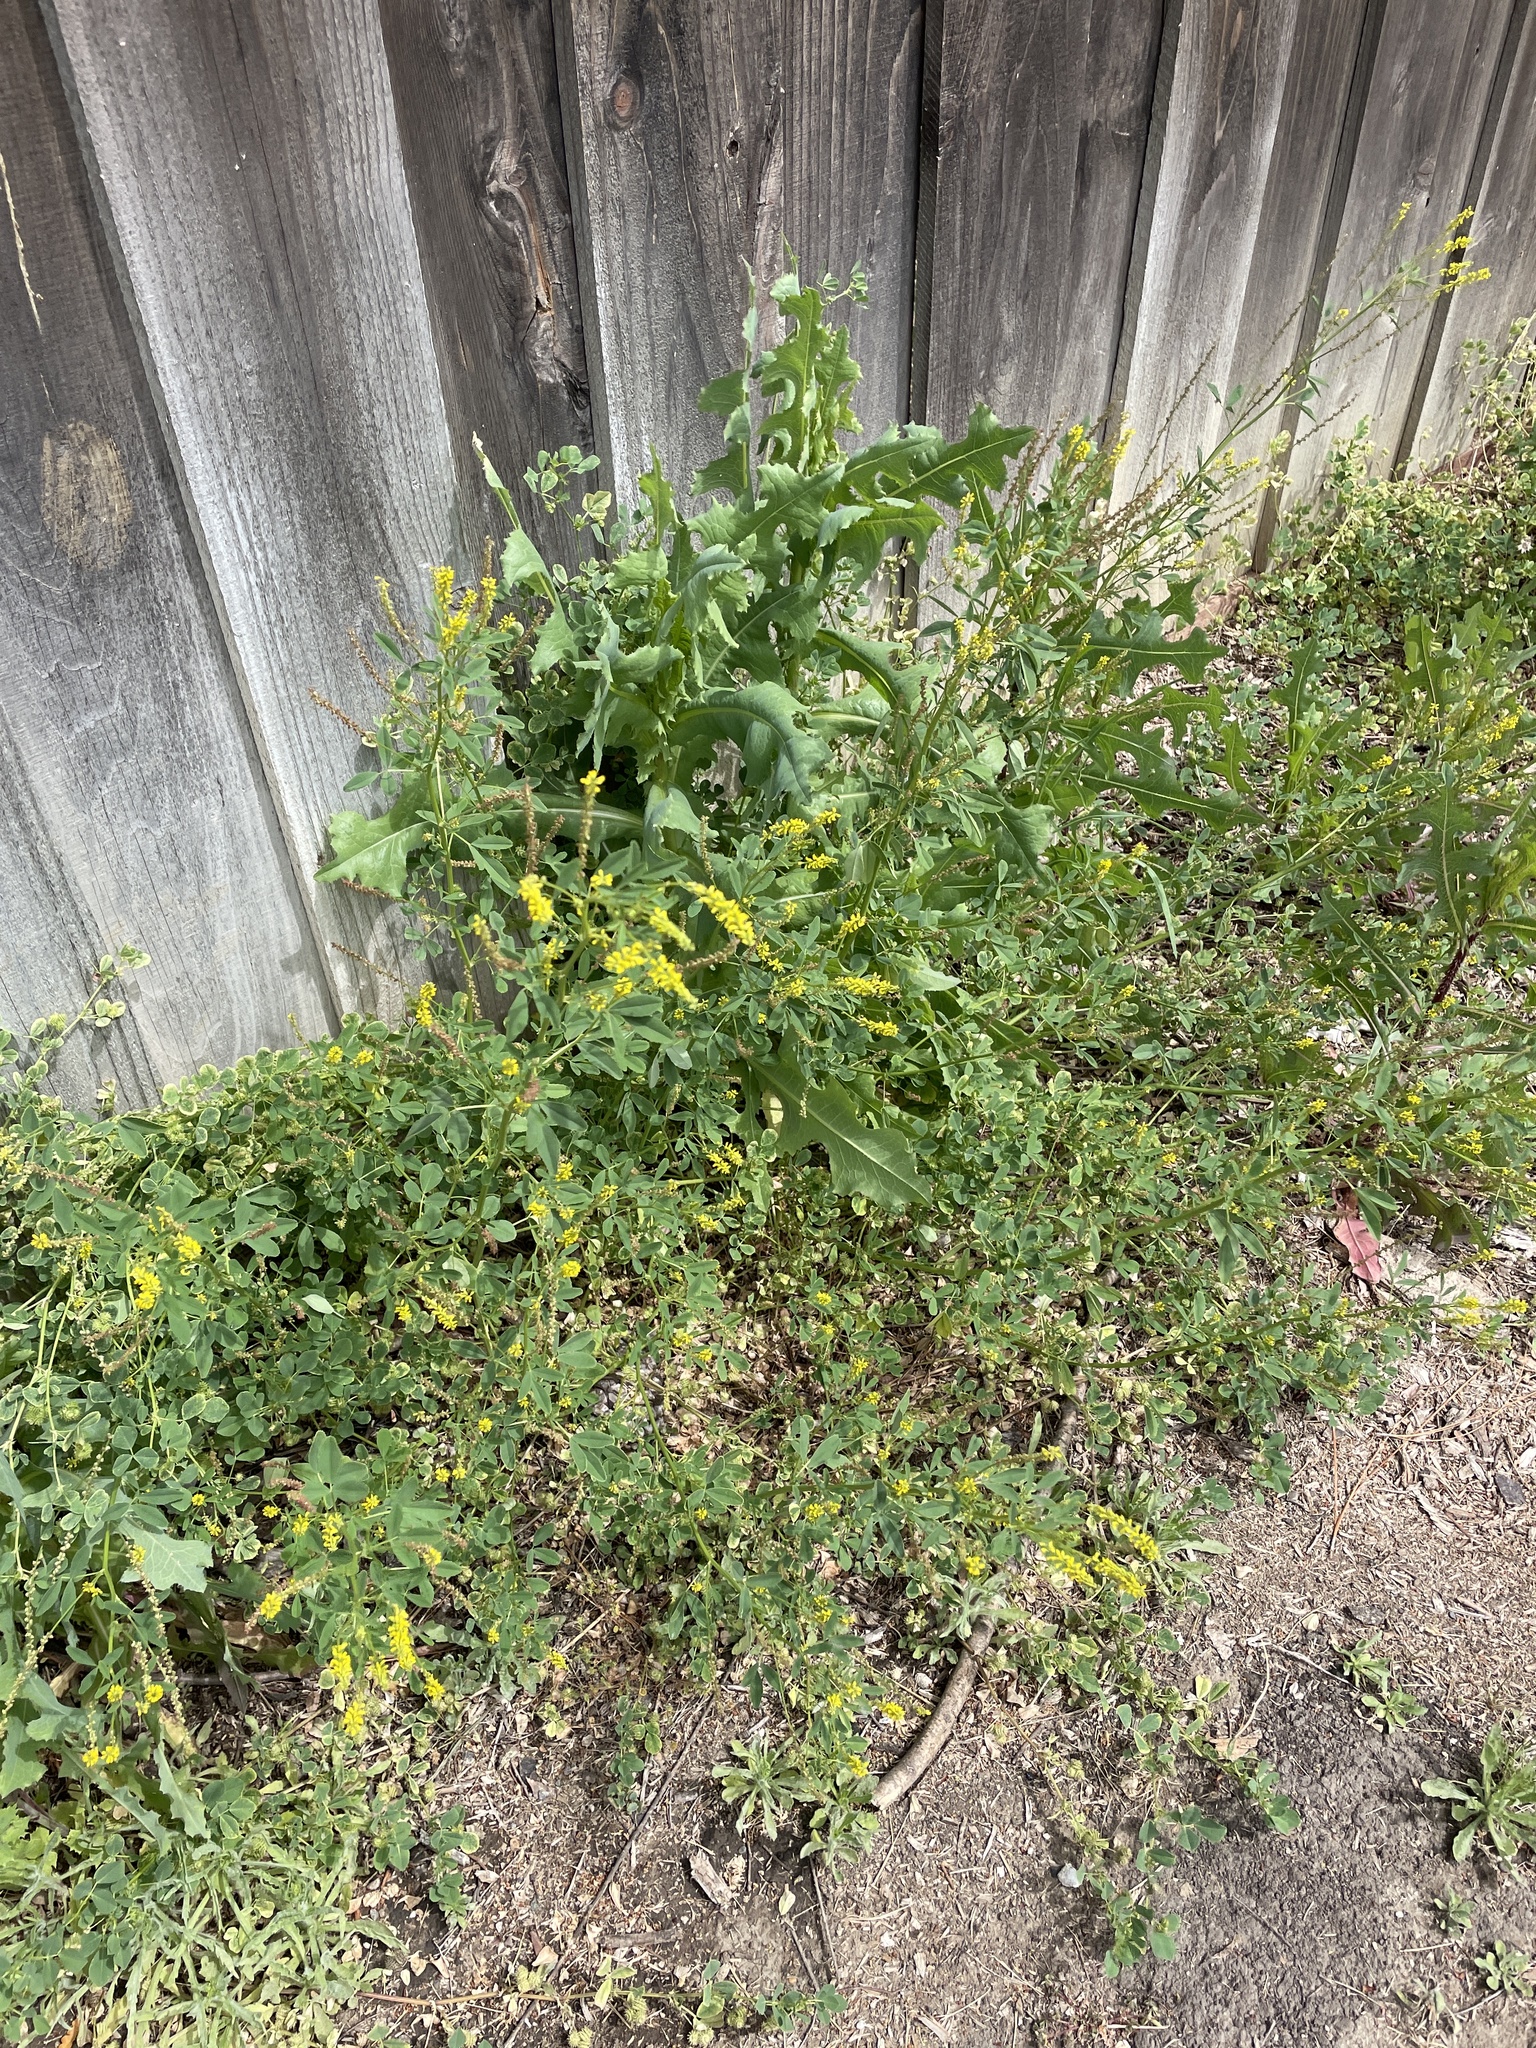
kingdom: Plantae
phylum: Tracheophyta
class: Magnoliopsida
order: Fabales
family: Fabaceae
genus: Melilotus
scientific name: Melilotus indicus
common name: Small melilot
